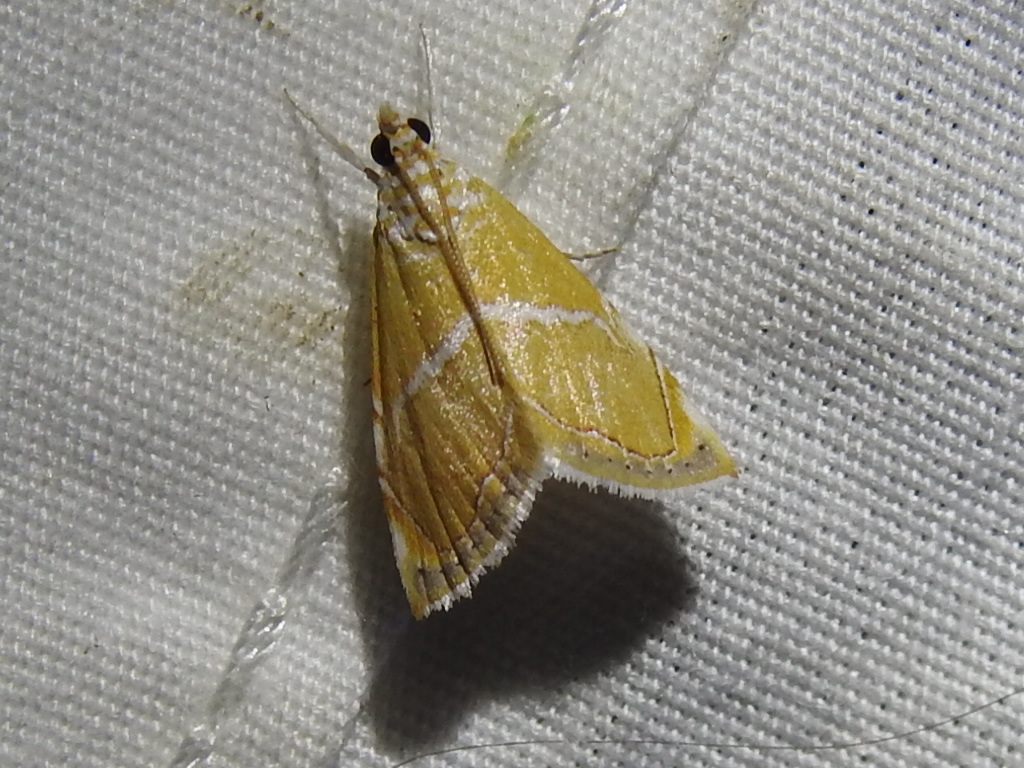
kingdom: Animalia
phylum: Arthropoda
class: Insecta
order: Lepidoptera
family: Crambidae
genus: Abegesta
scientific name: Abegesta reluctalis
